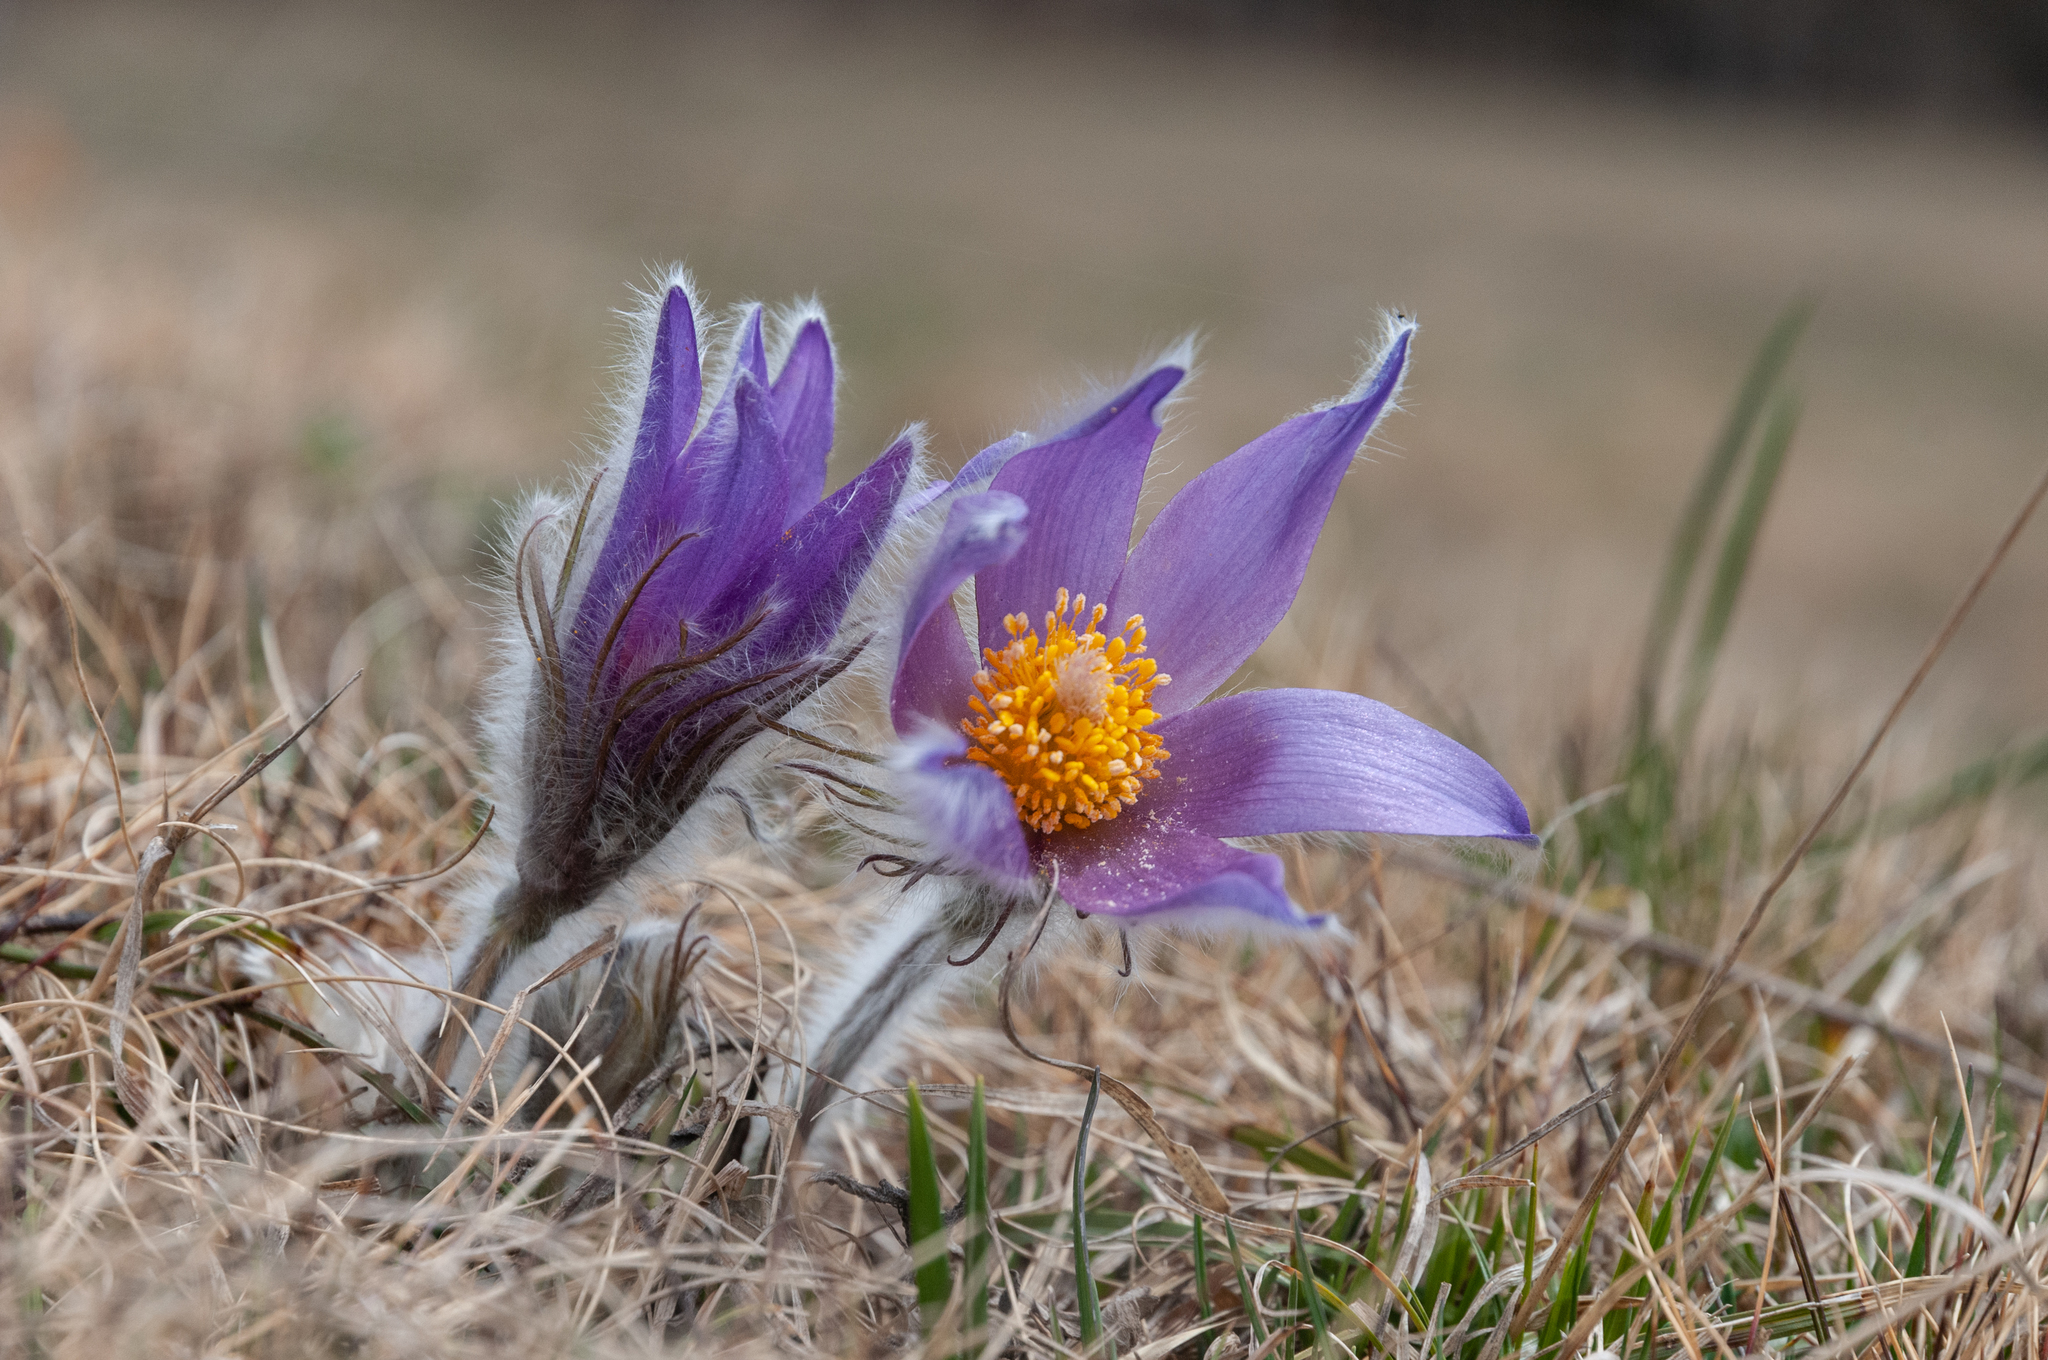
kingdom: Plantae
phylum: Tracheophyta
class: Magnoliopsida
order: Ranunculales
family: Ranunculaceae
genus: Pulsatilla
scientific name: Pulsatilla halleri
